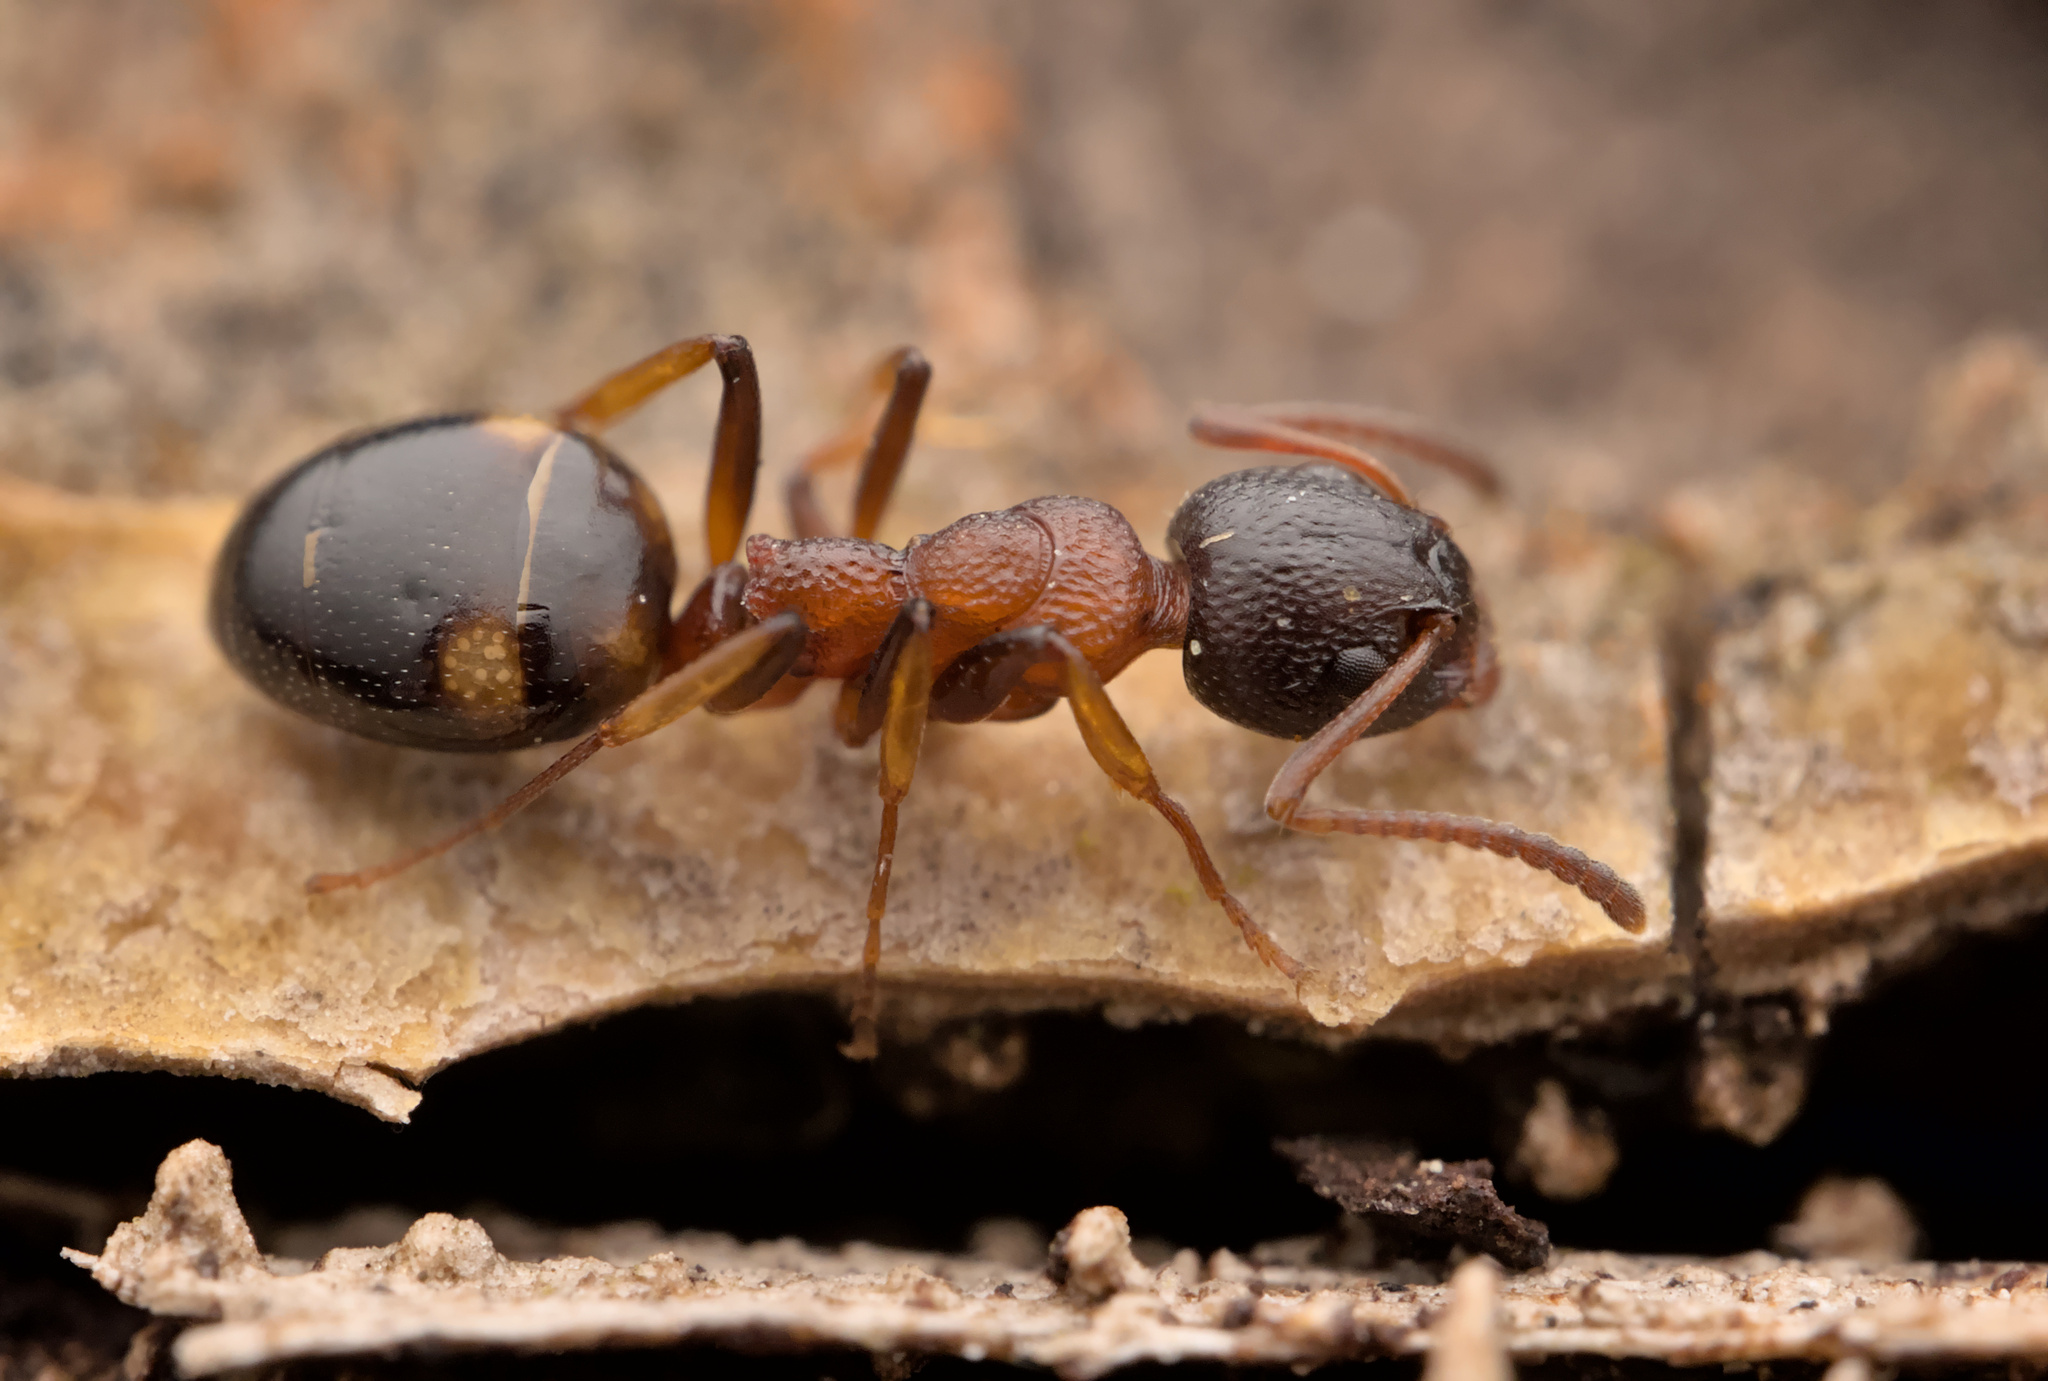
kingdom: Animalia
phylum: Arthropoda
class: Insecta
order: Hymenoptera
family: Formicidae
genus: Dolichoderus
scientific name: Dolichoderus quadripunctatus
